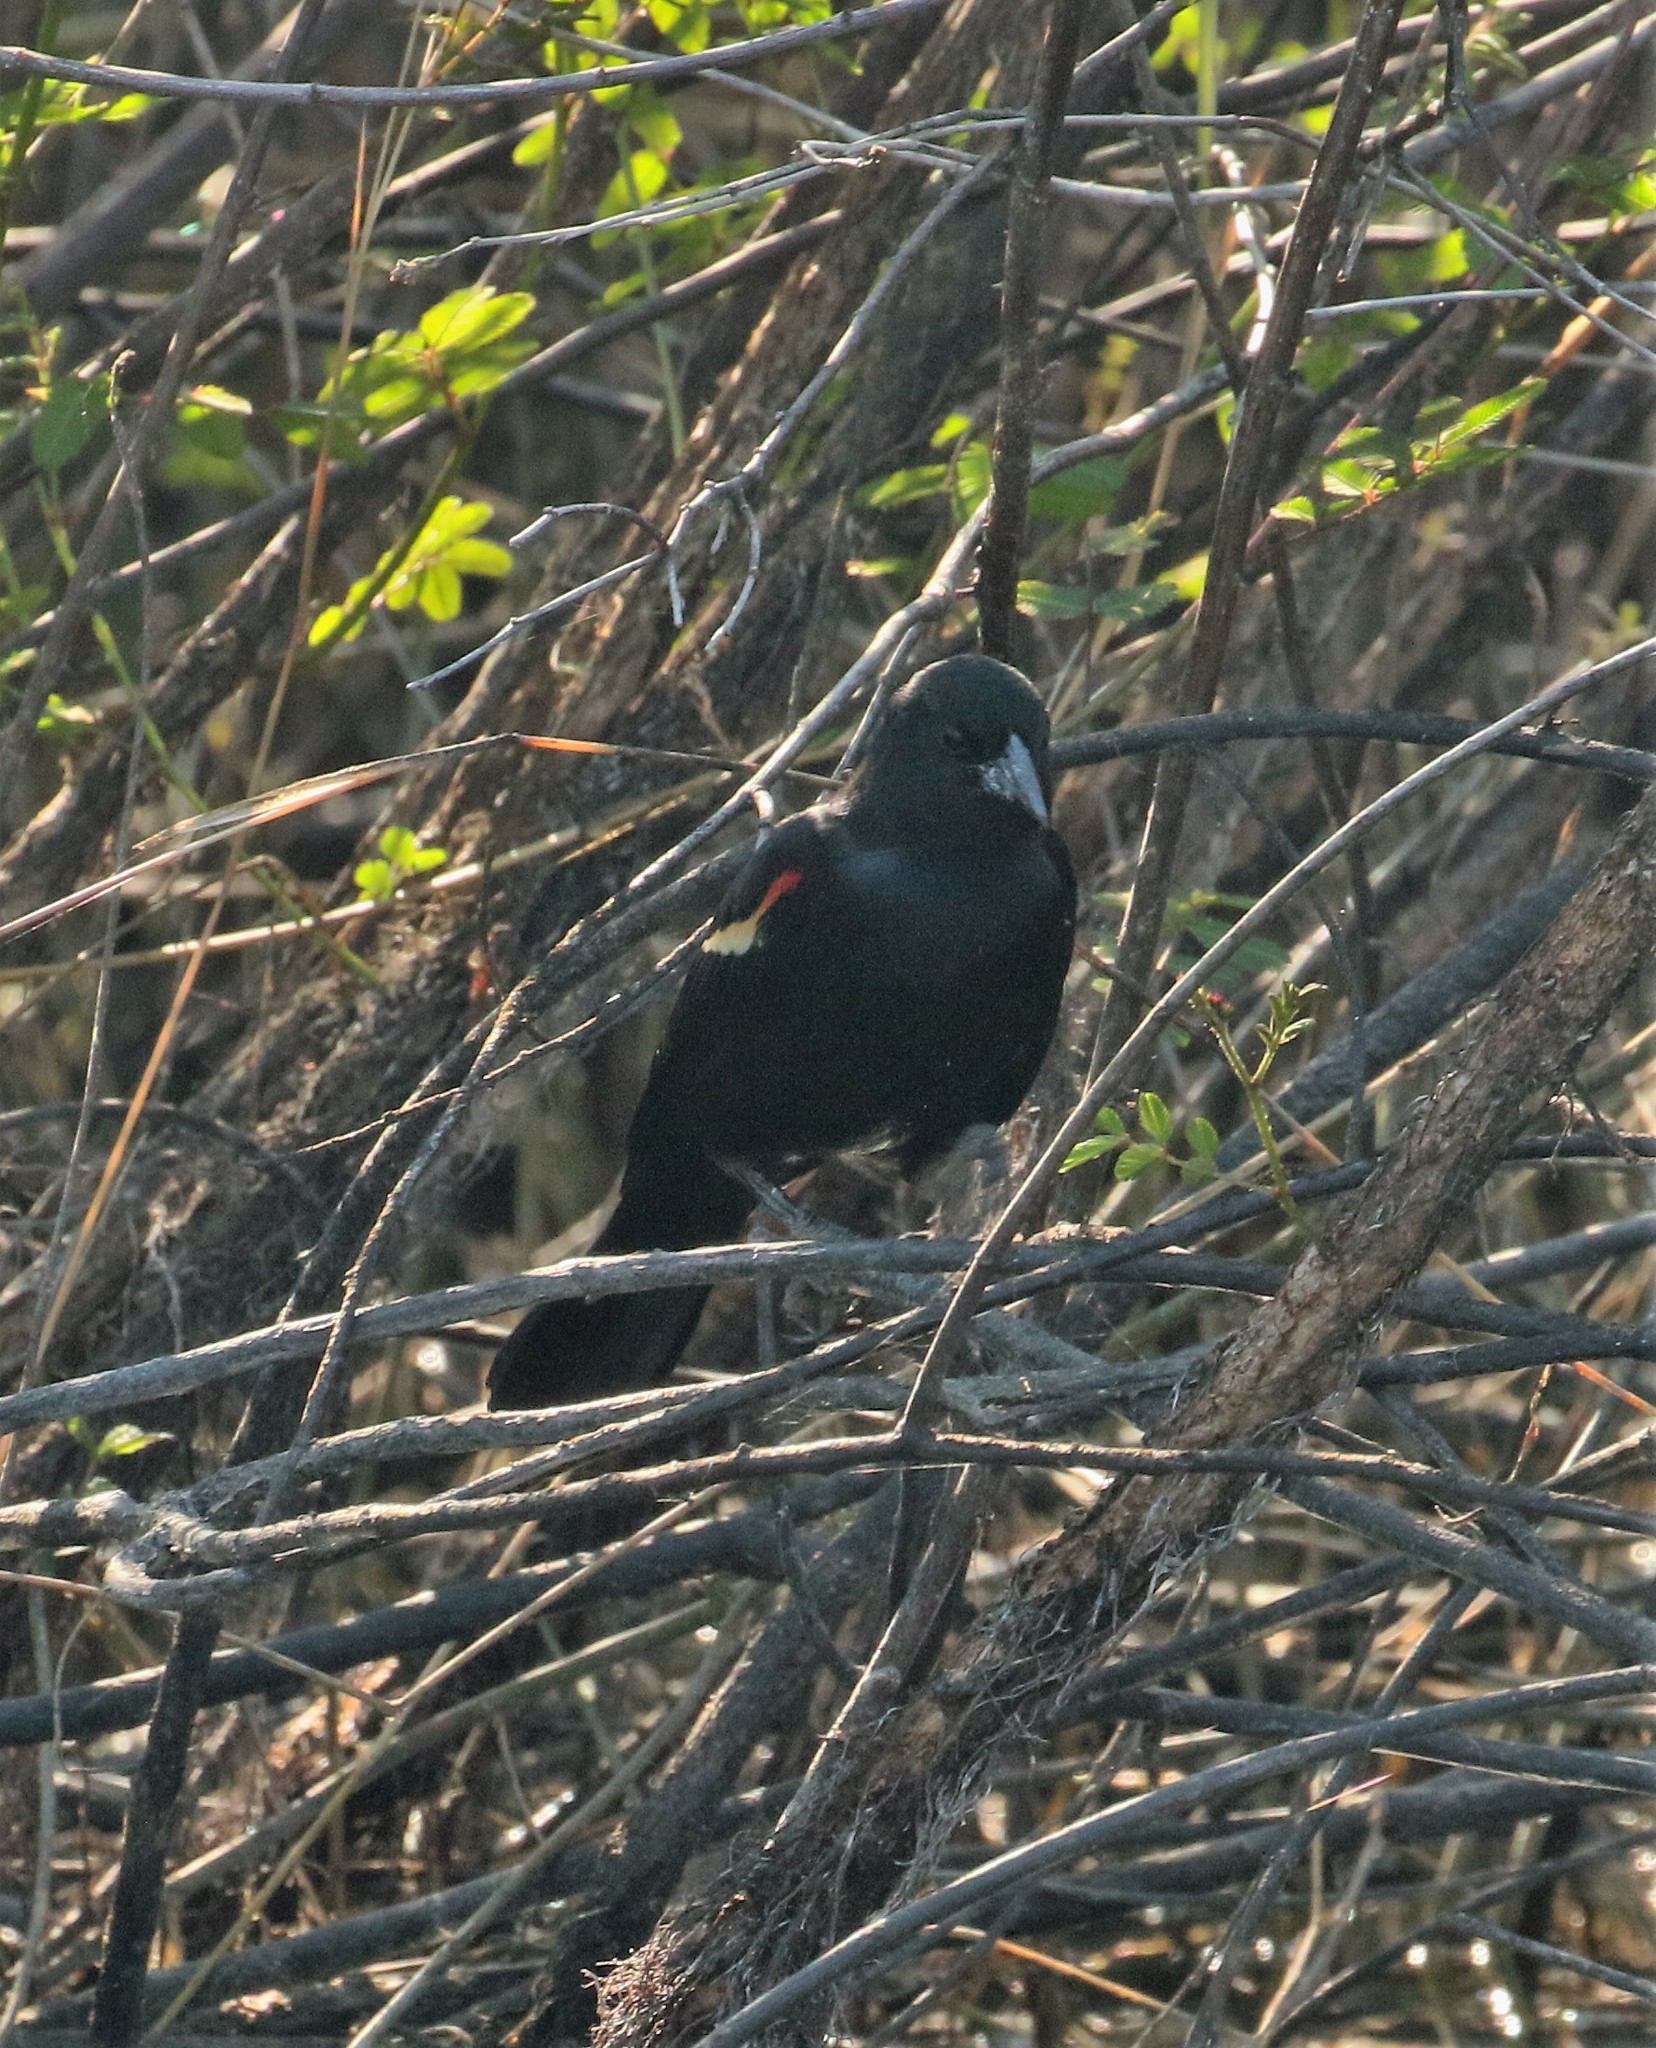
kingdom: Animalia
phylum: Chordata
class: Aves
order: Passeriformes
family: Icteridae
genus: Agelaius
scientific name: Agelaius phoeniceus
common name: Red-winged blackbird
